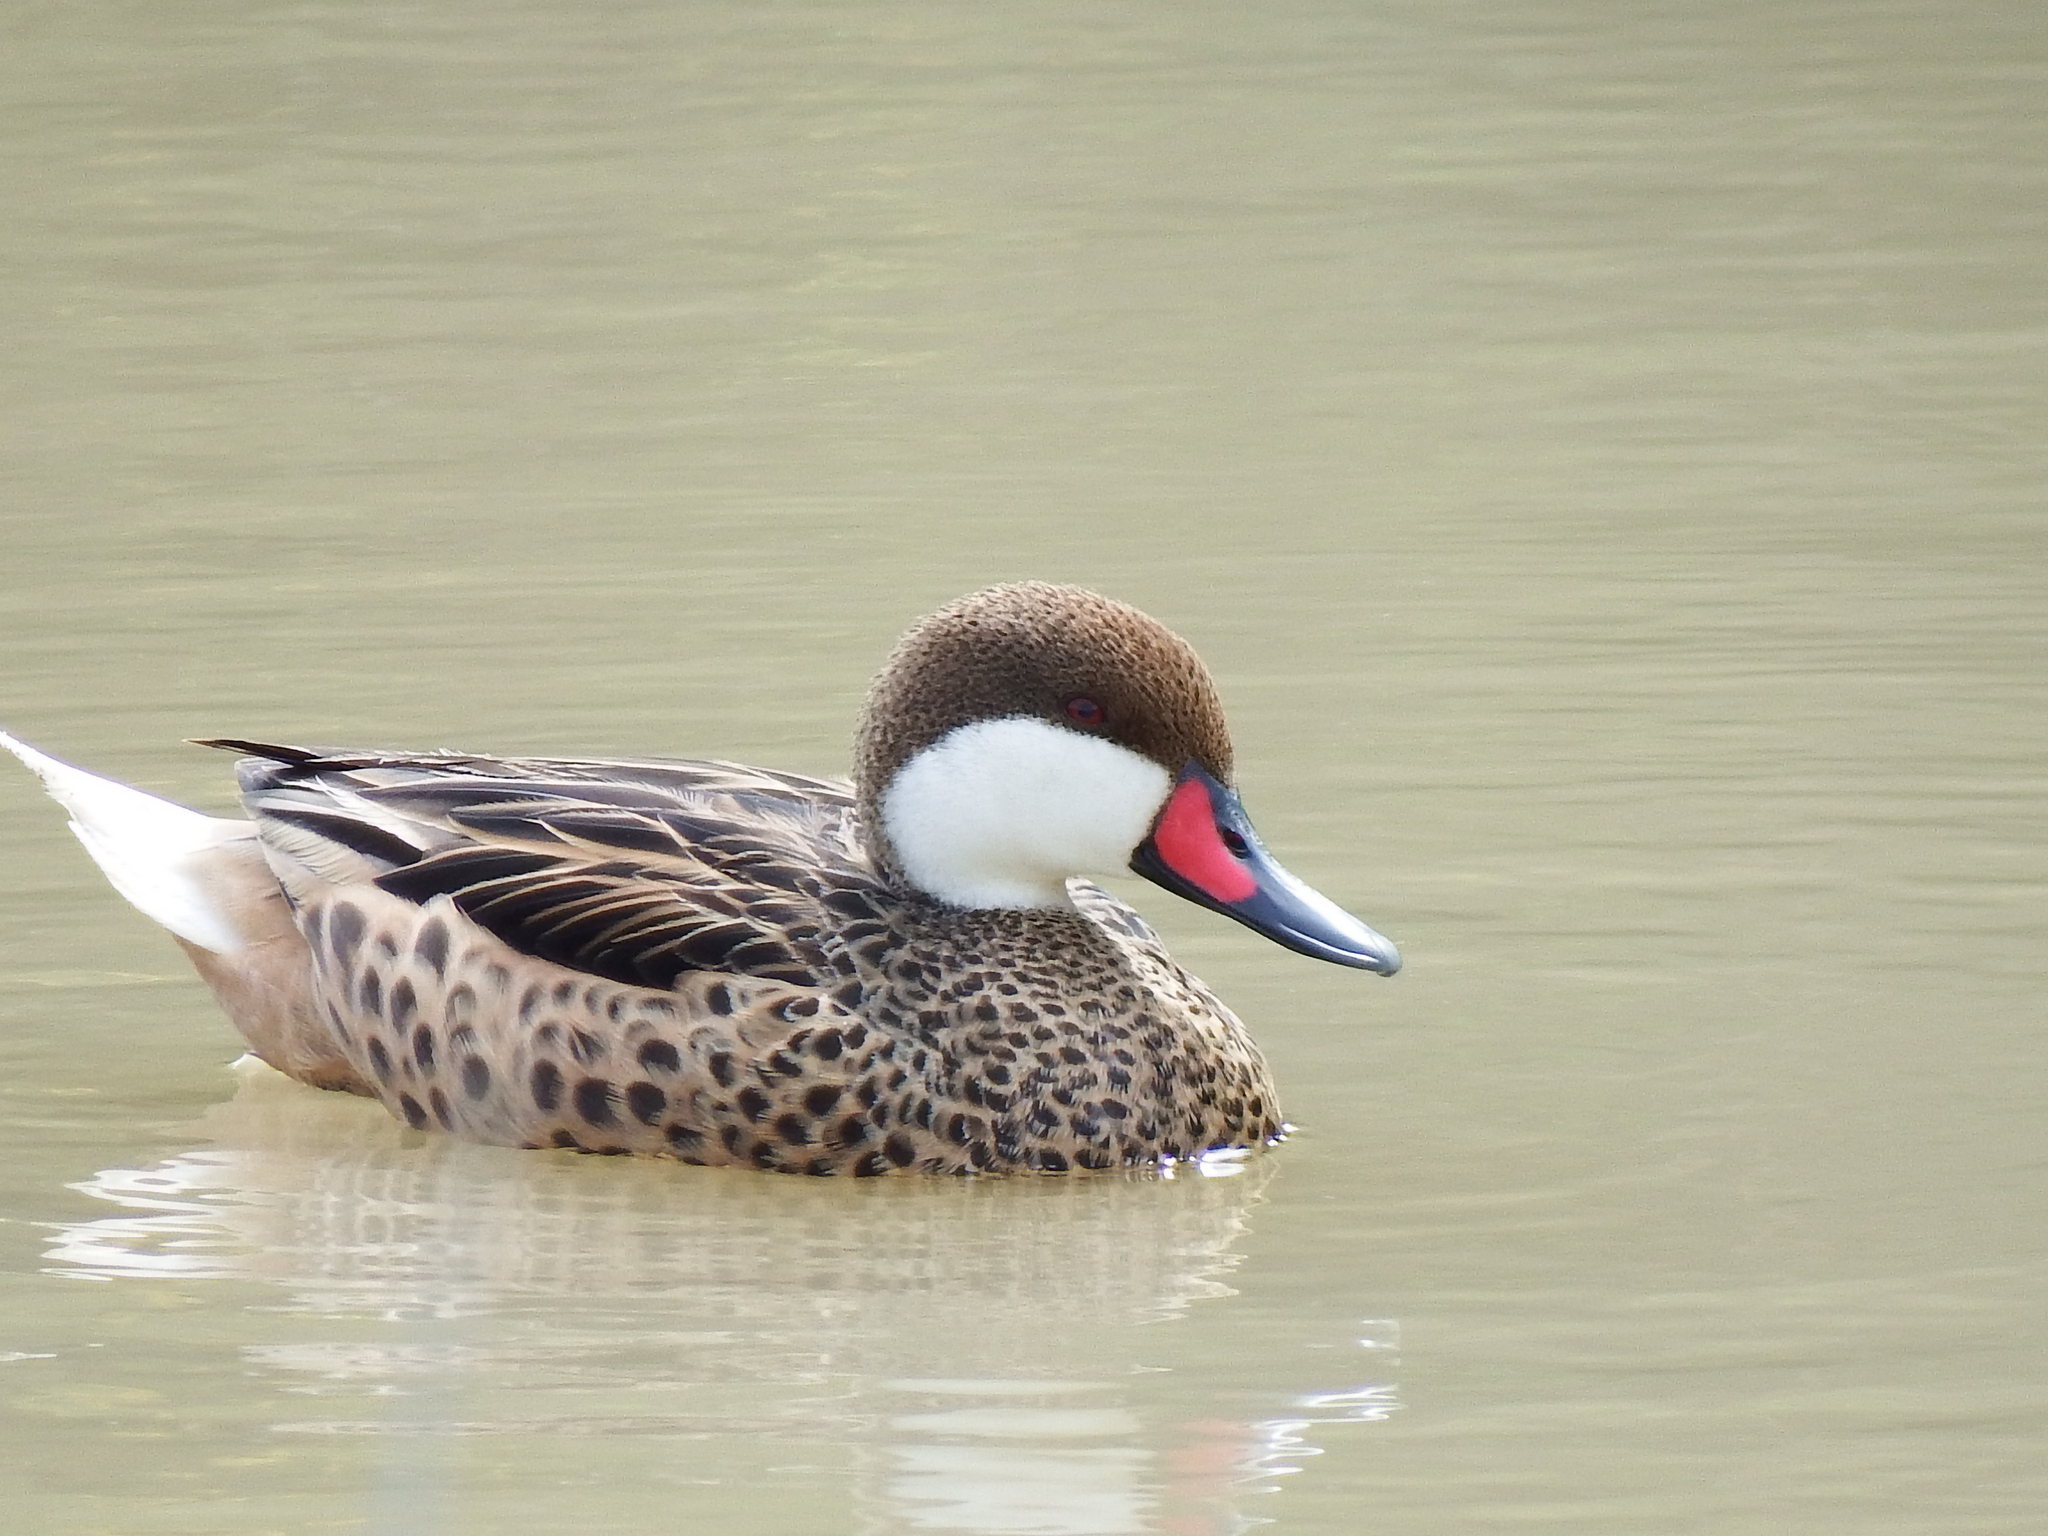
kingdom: Animalia
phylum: Chordata
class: Aves
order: Anseriformes
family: Anatidae
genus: Anas
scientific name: Anas bahamensis
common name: White-cheeked pintail
